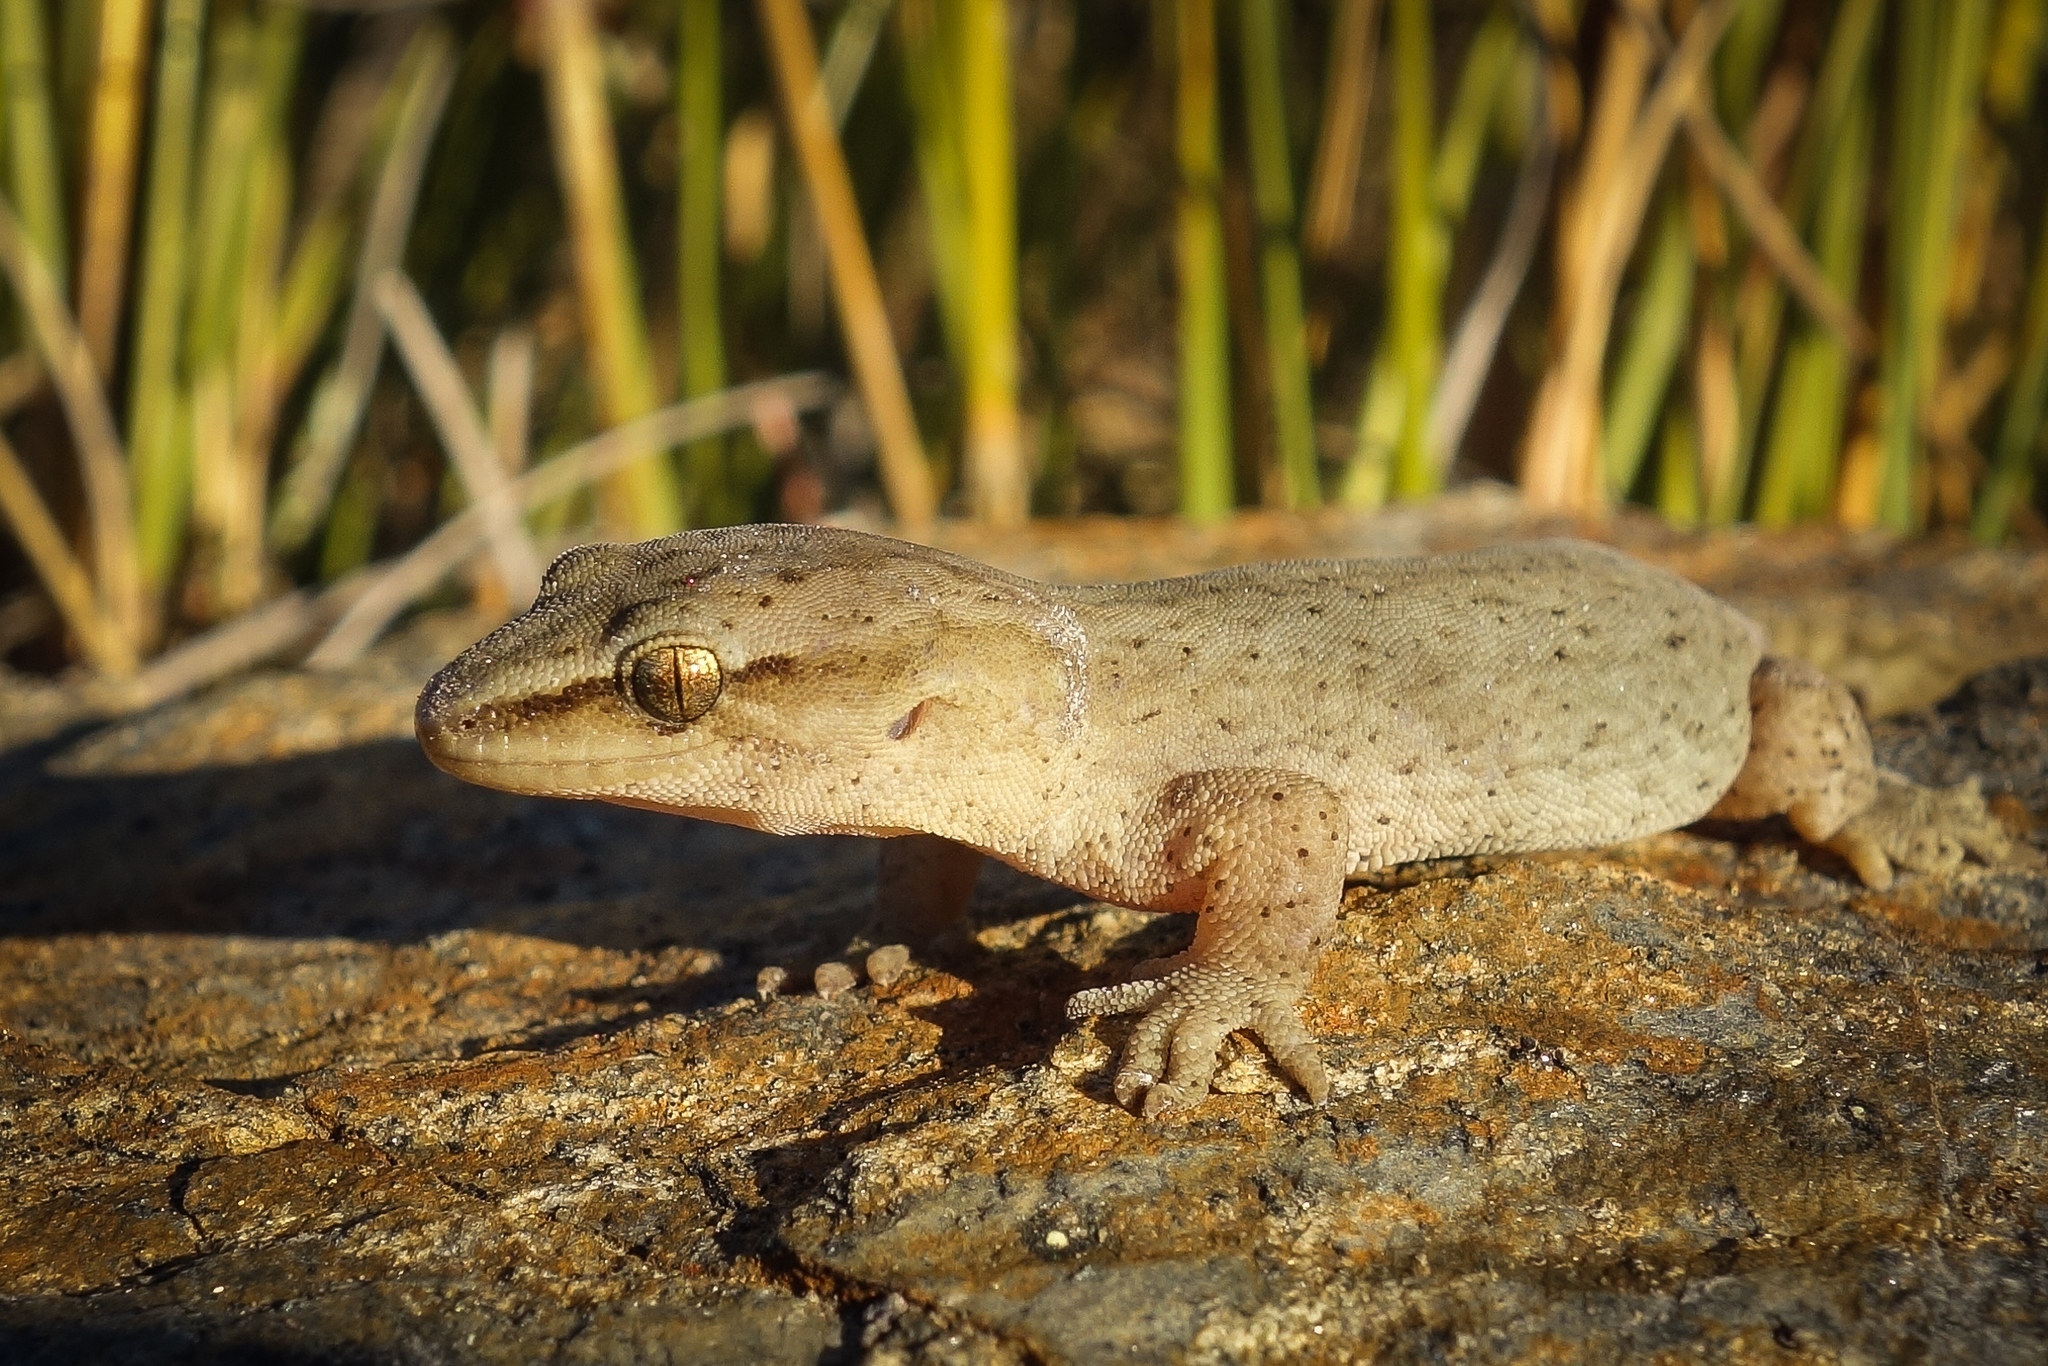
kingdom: Animalia
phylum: Chordata
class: Squamata
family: Diplodactylidae
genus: Woodworthia
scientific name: Woodworthia
